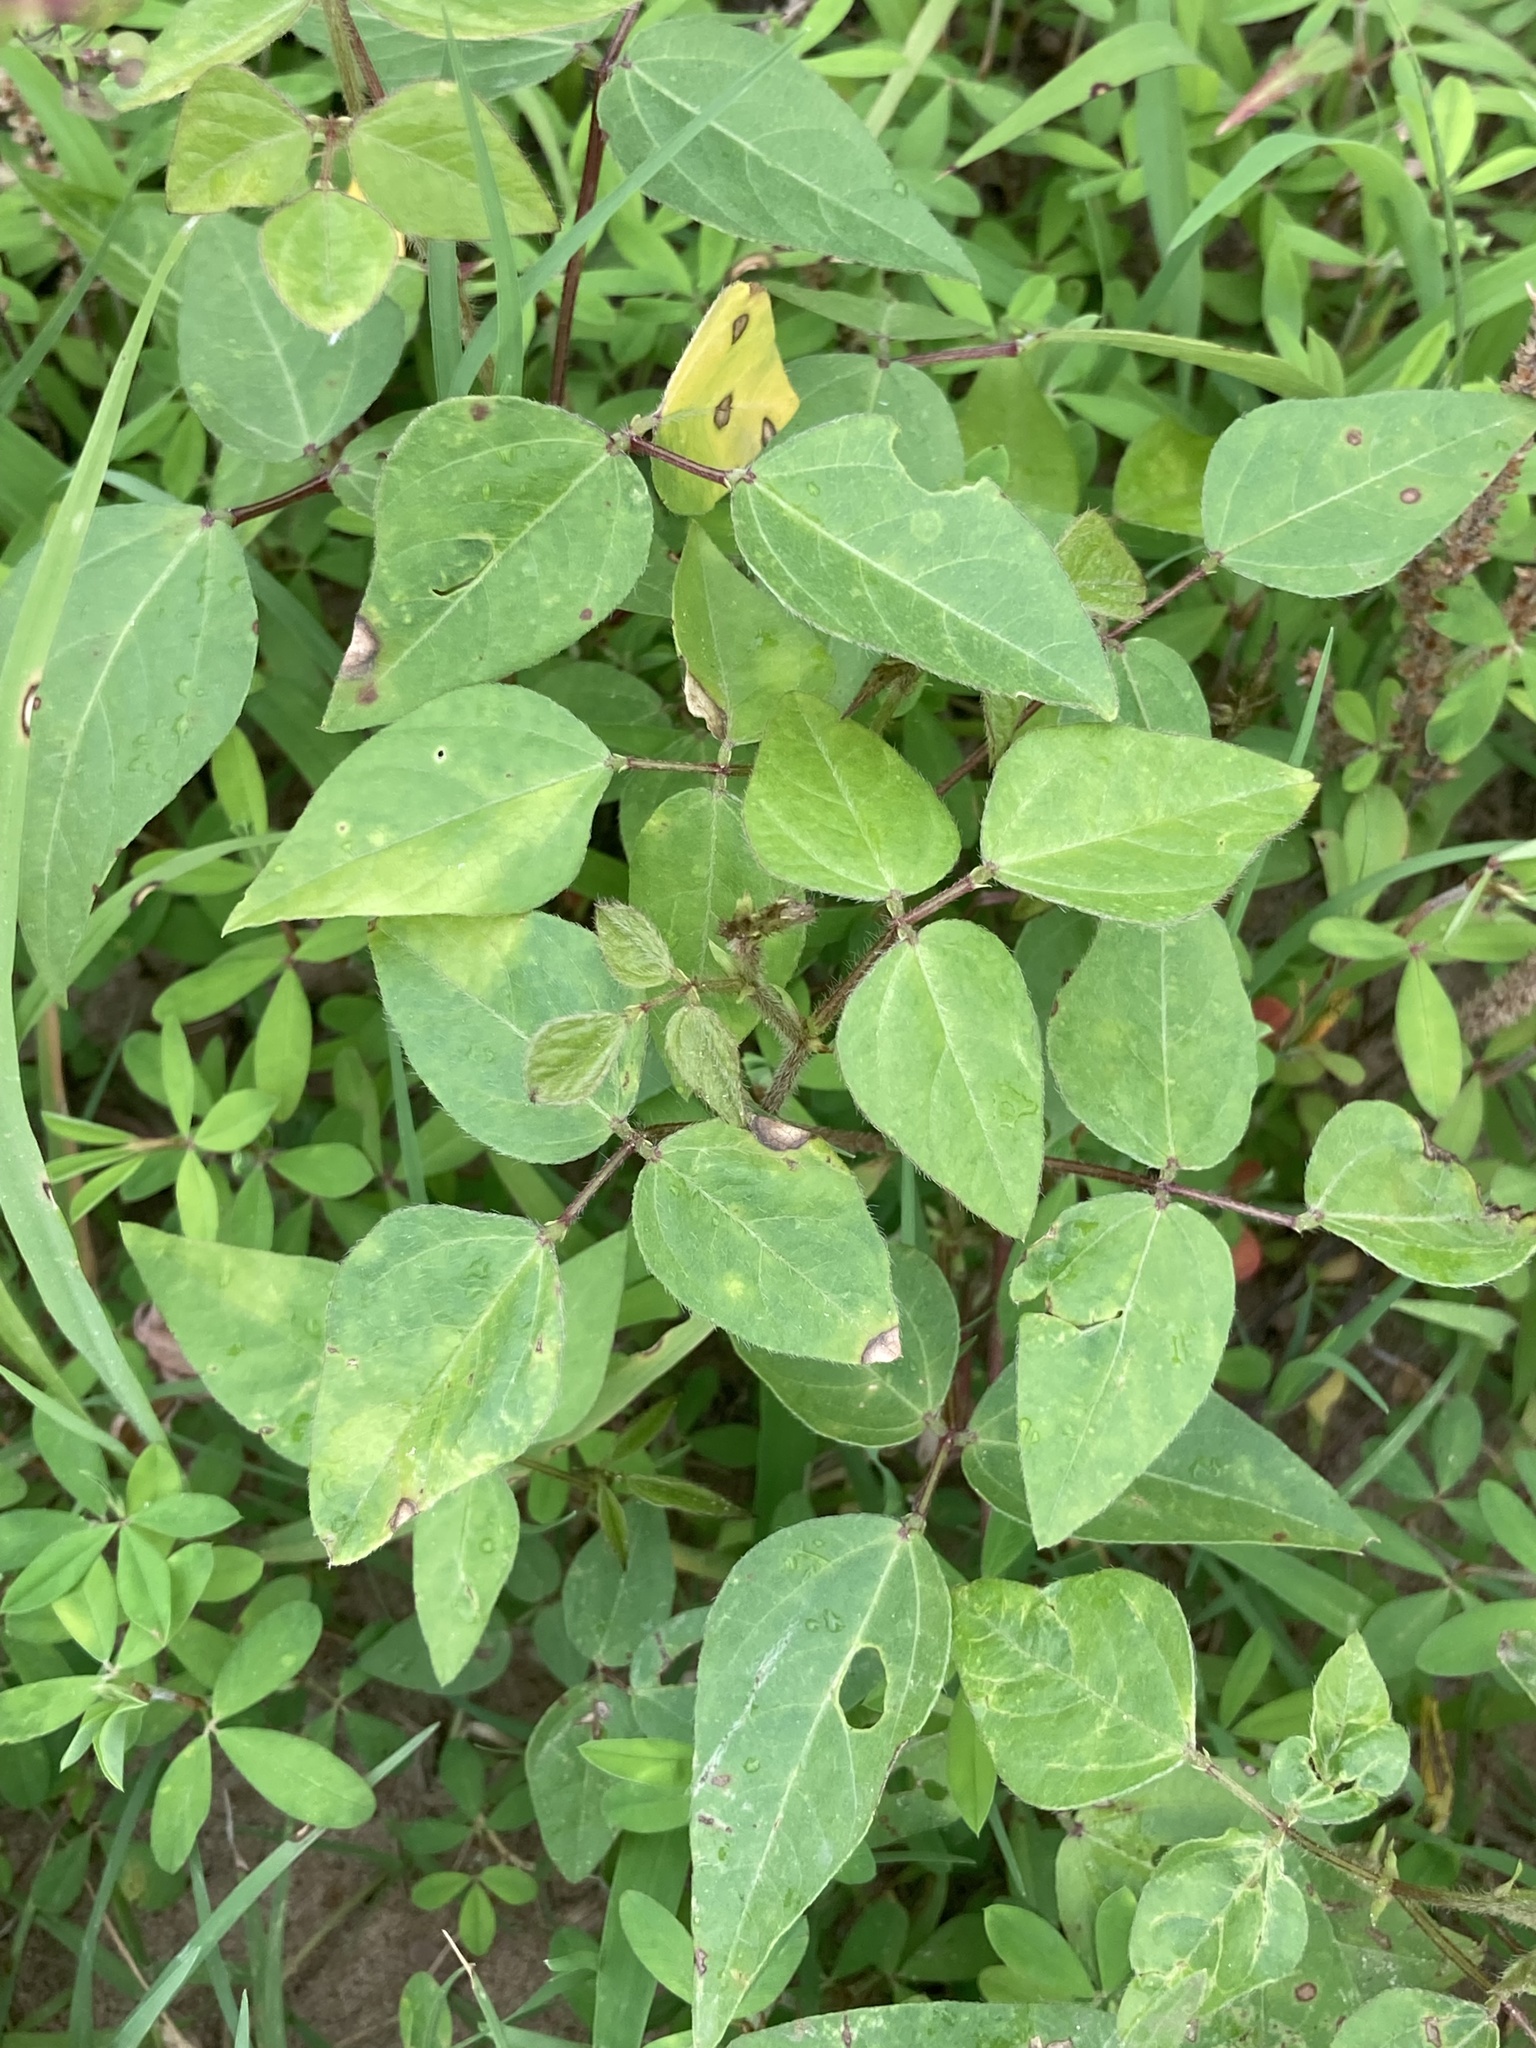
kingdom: Plantae
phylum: Tracheophyta
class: Magnoliopsida
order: Fabales
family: Fabaceae
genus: Strophostyles
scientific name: Strophostyles helvola
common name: Trailing wild bean
